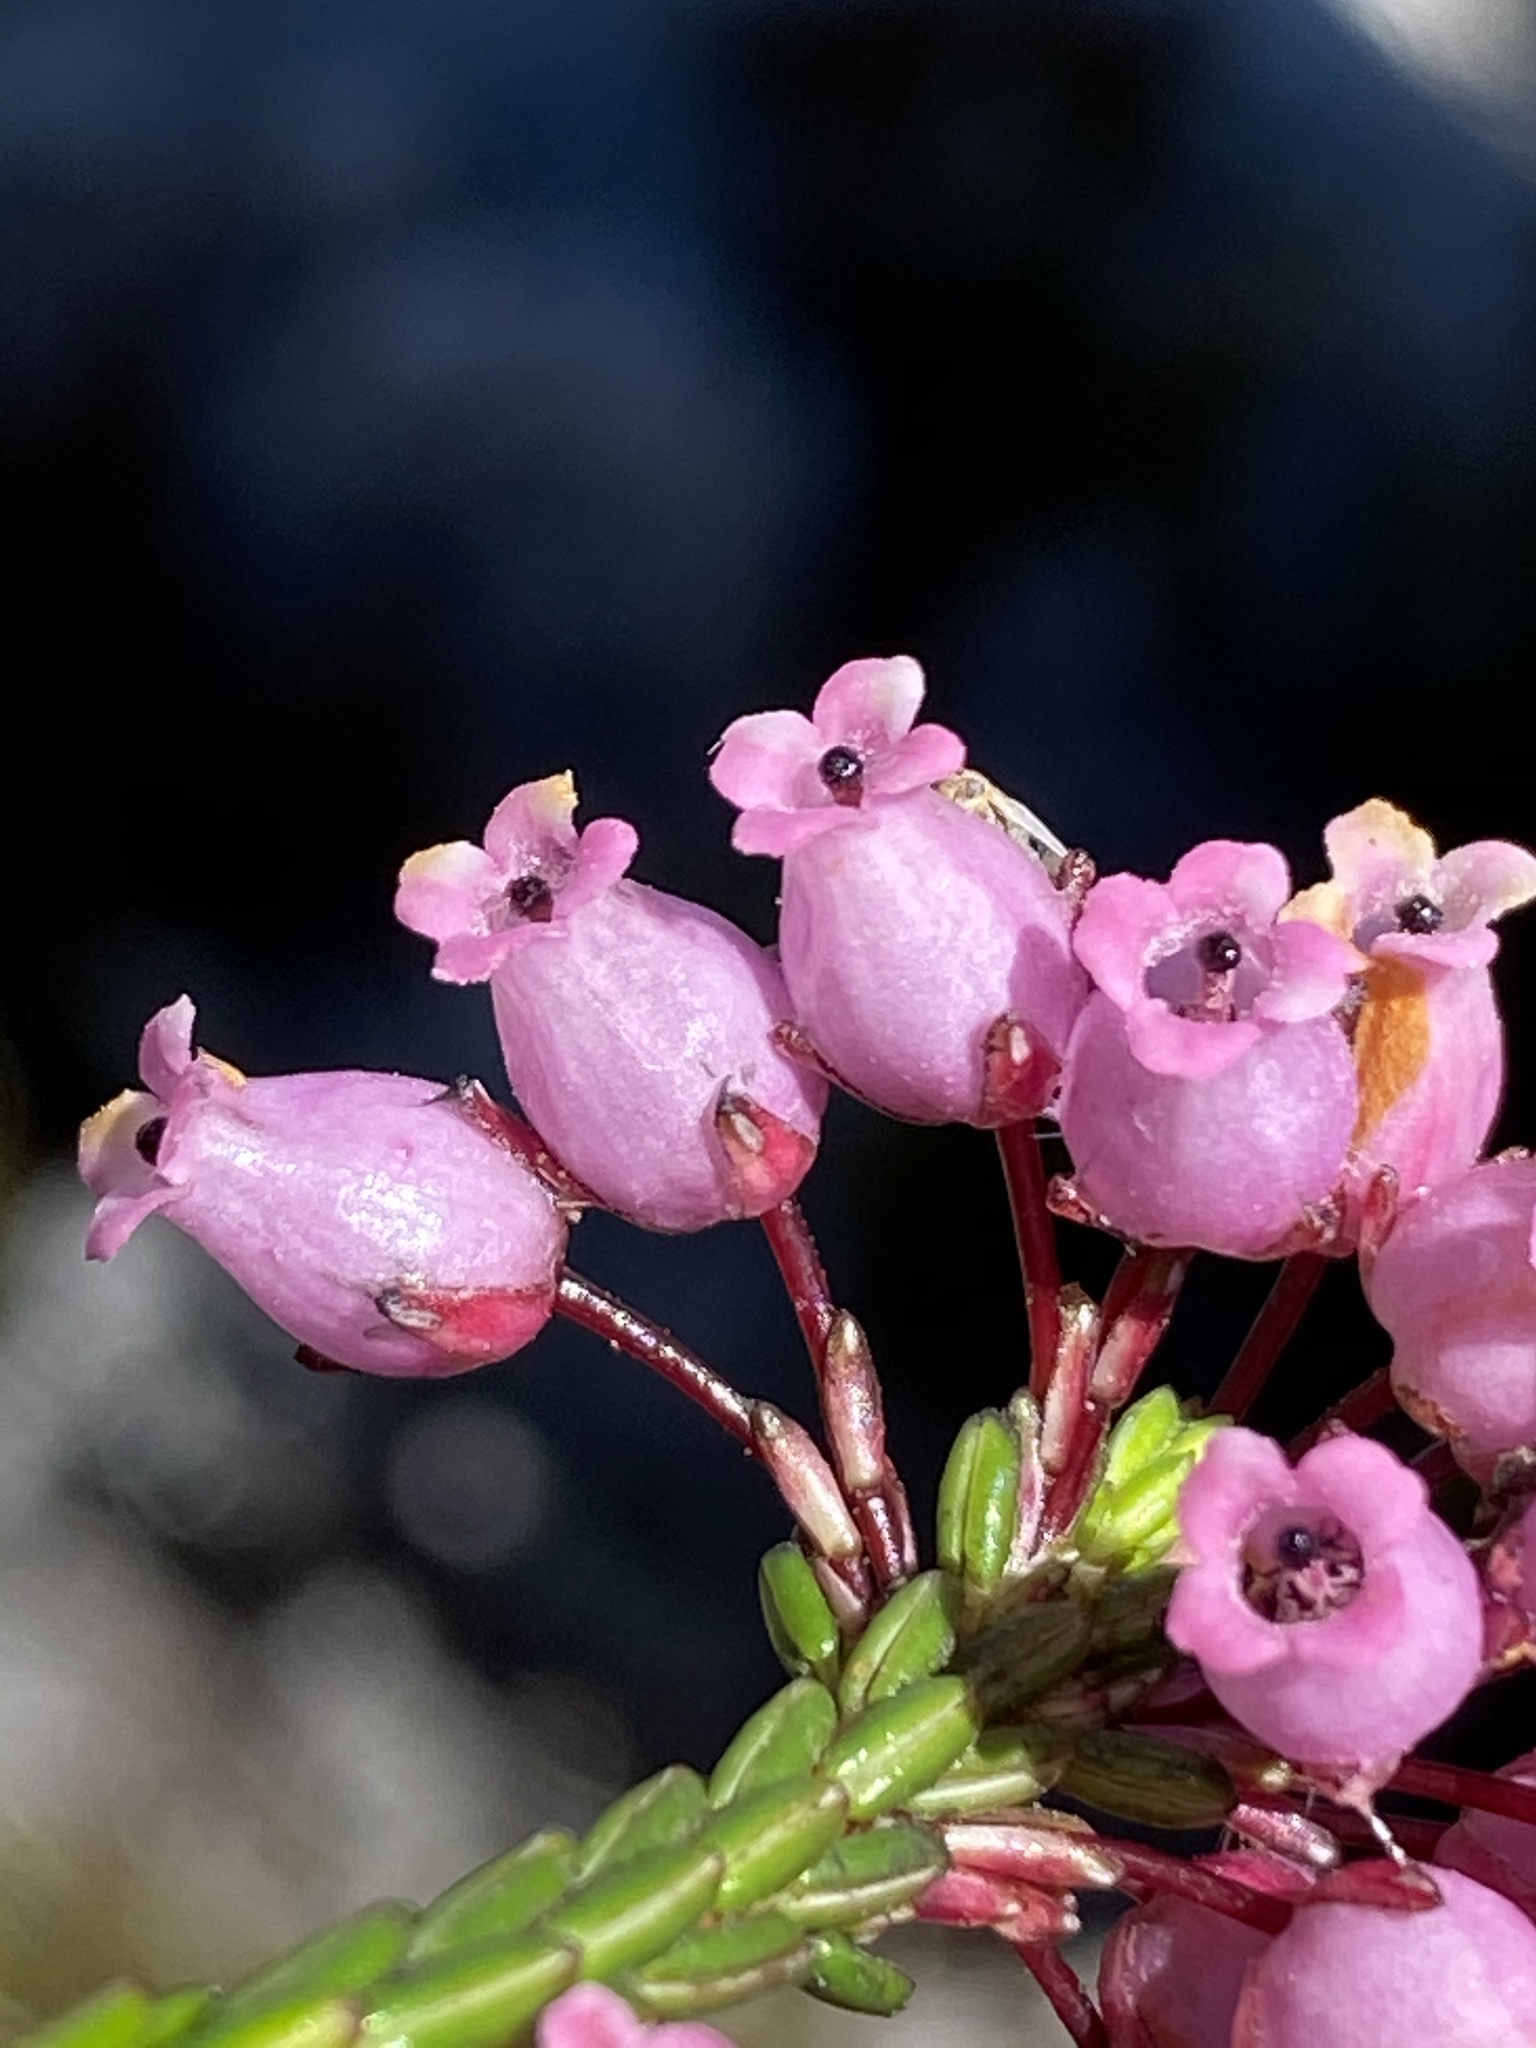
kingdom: Plantae
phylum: Tracheophyta
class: Magnoliopsida
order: Ericales
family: Ericaceae
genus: Erica
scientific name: Erica nubigena
